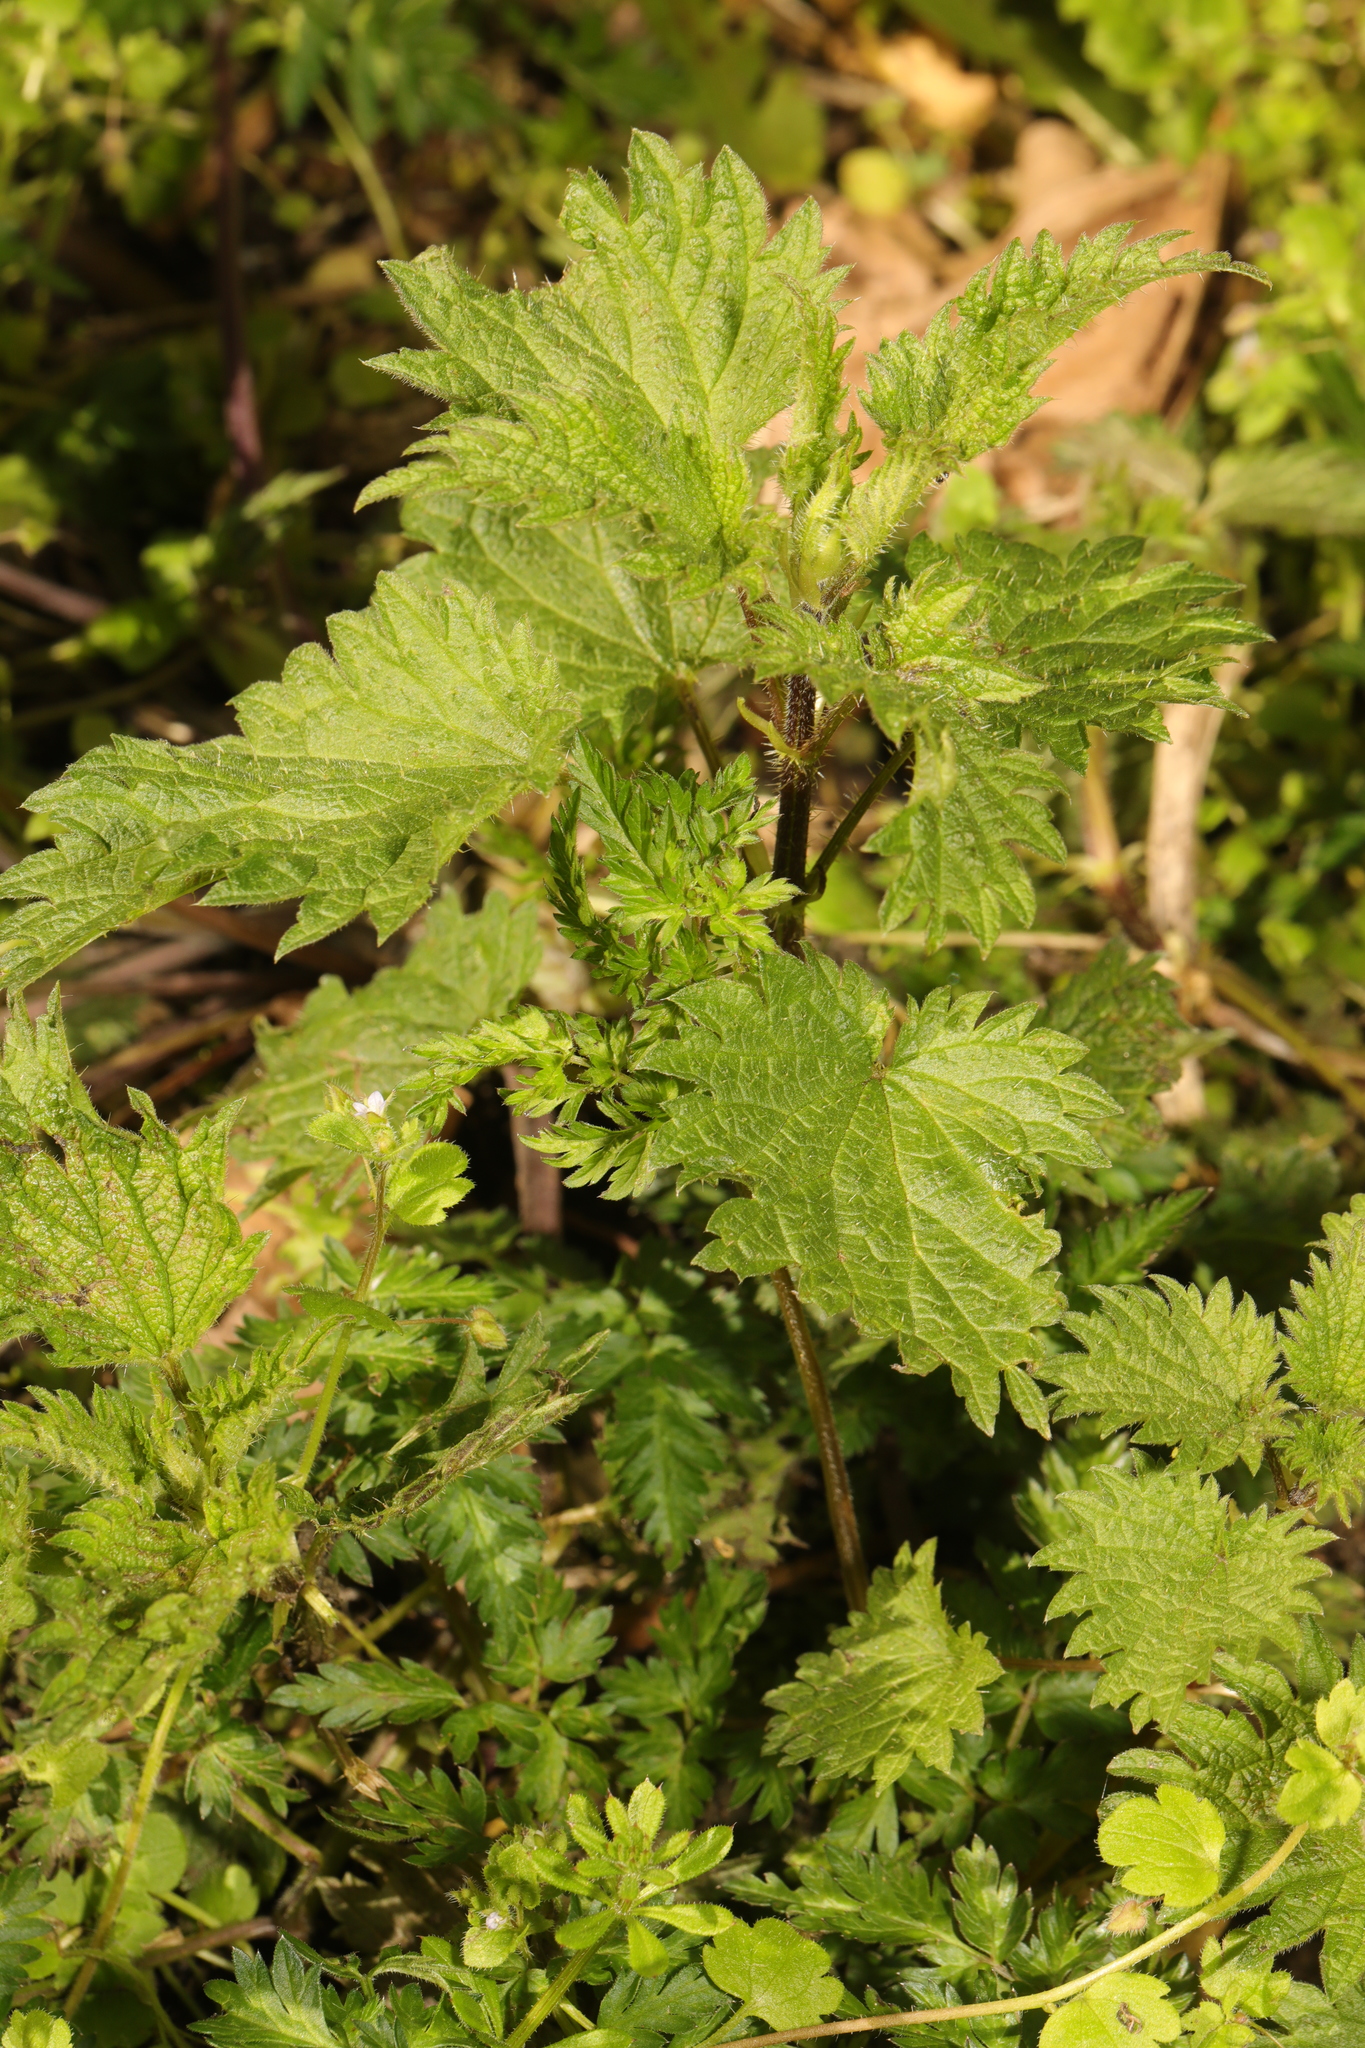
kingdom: Plantae
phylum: Tracheophyta
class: Magnoliopsida
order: Rosales
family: Urticaceae
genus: Urtica
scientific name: Urtica dioica
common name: Common nettle
